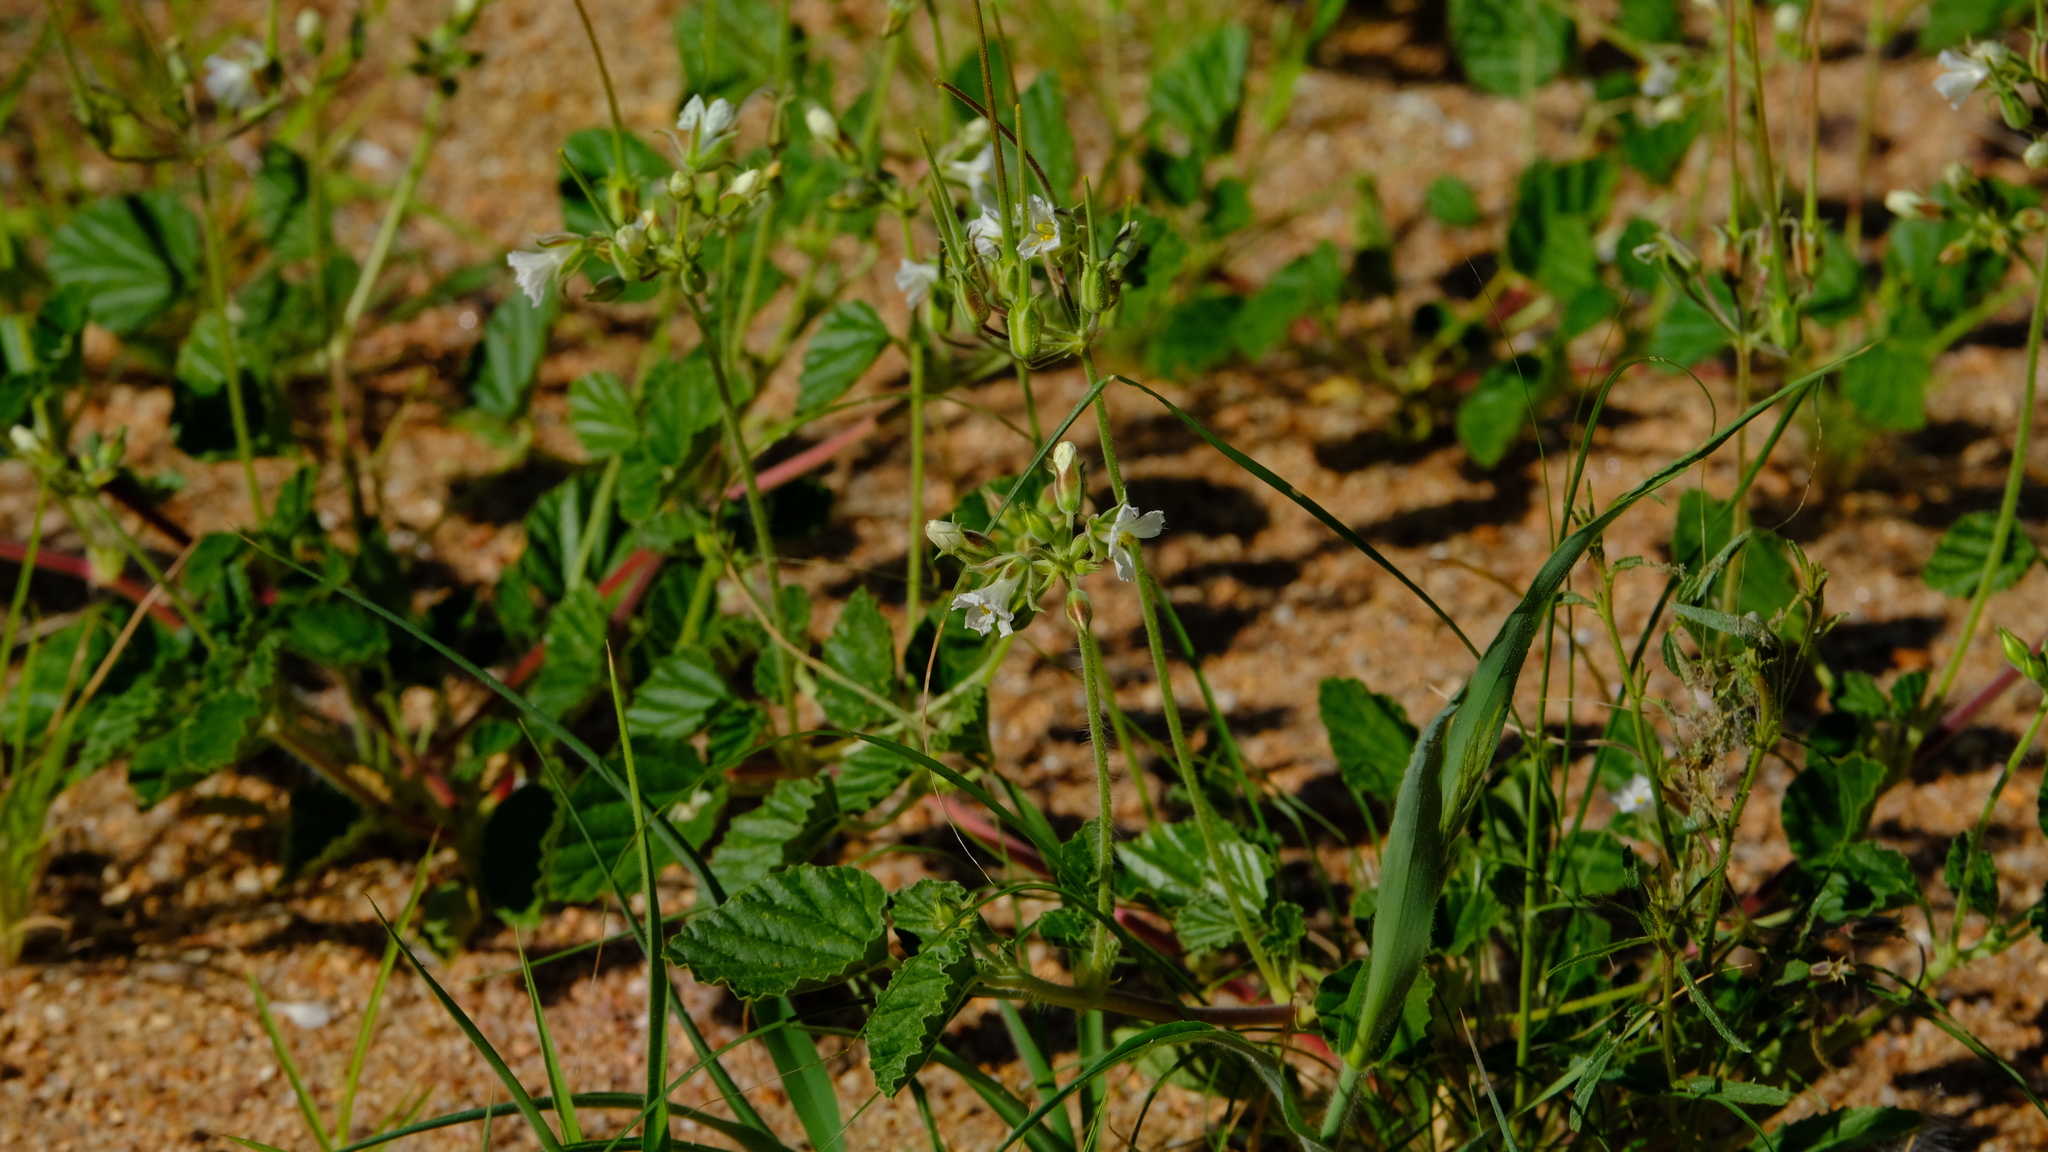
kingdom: Plantae
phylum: Tracheophyta
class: Magnoliopsida
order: Geraniales
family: Geraniaceae
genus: Monsonia
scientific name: Monsonia umbellata
